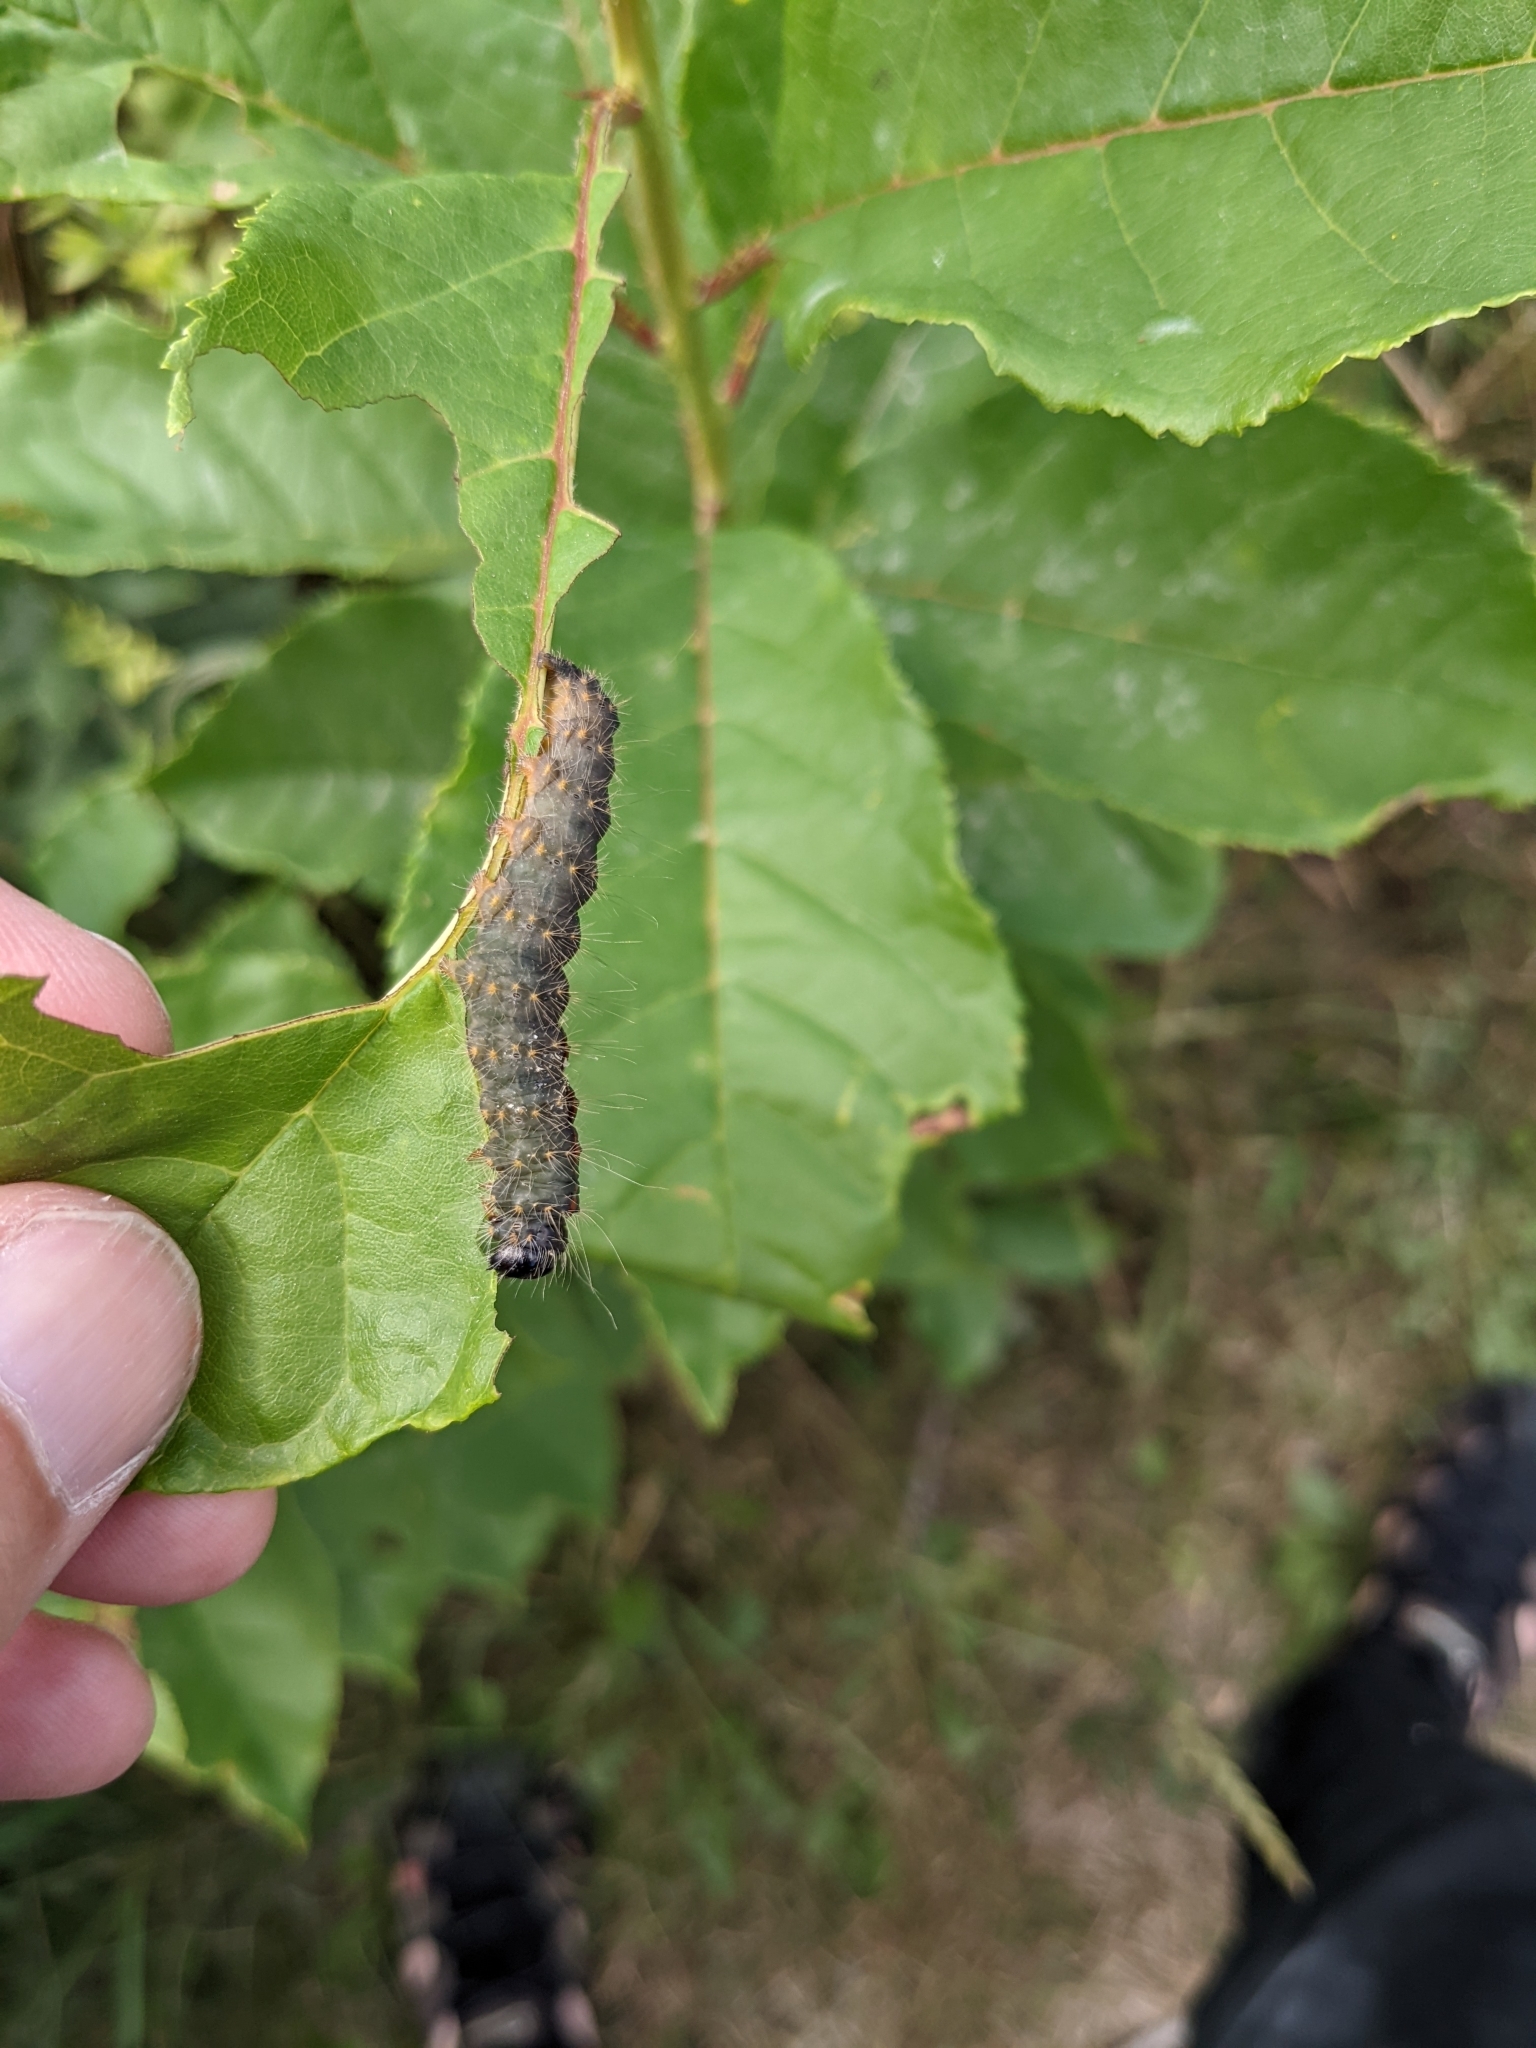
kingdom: Animalia
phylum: Arthropoda
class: Insecta
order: Lepidoptera
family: Noctuidae
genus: Acronicta
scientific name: Acronicta hasta
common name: Cherry dagger
